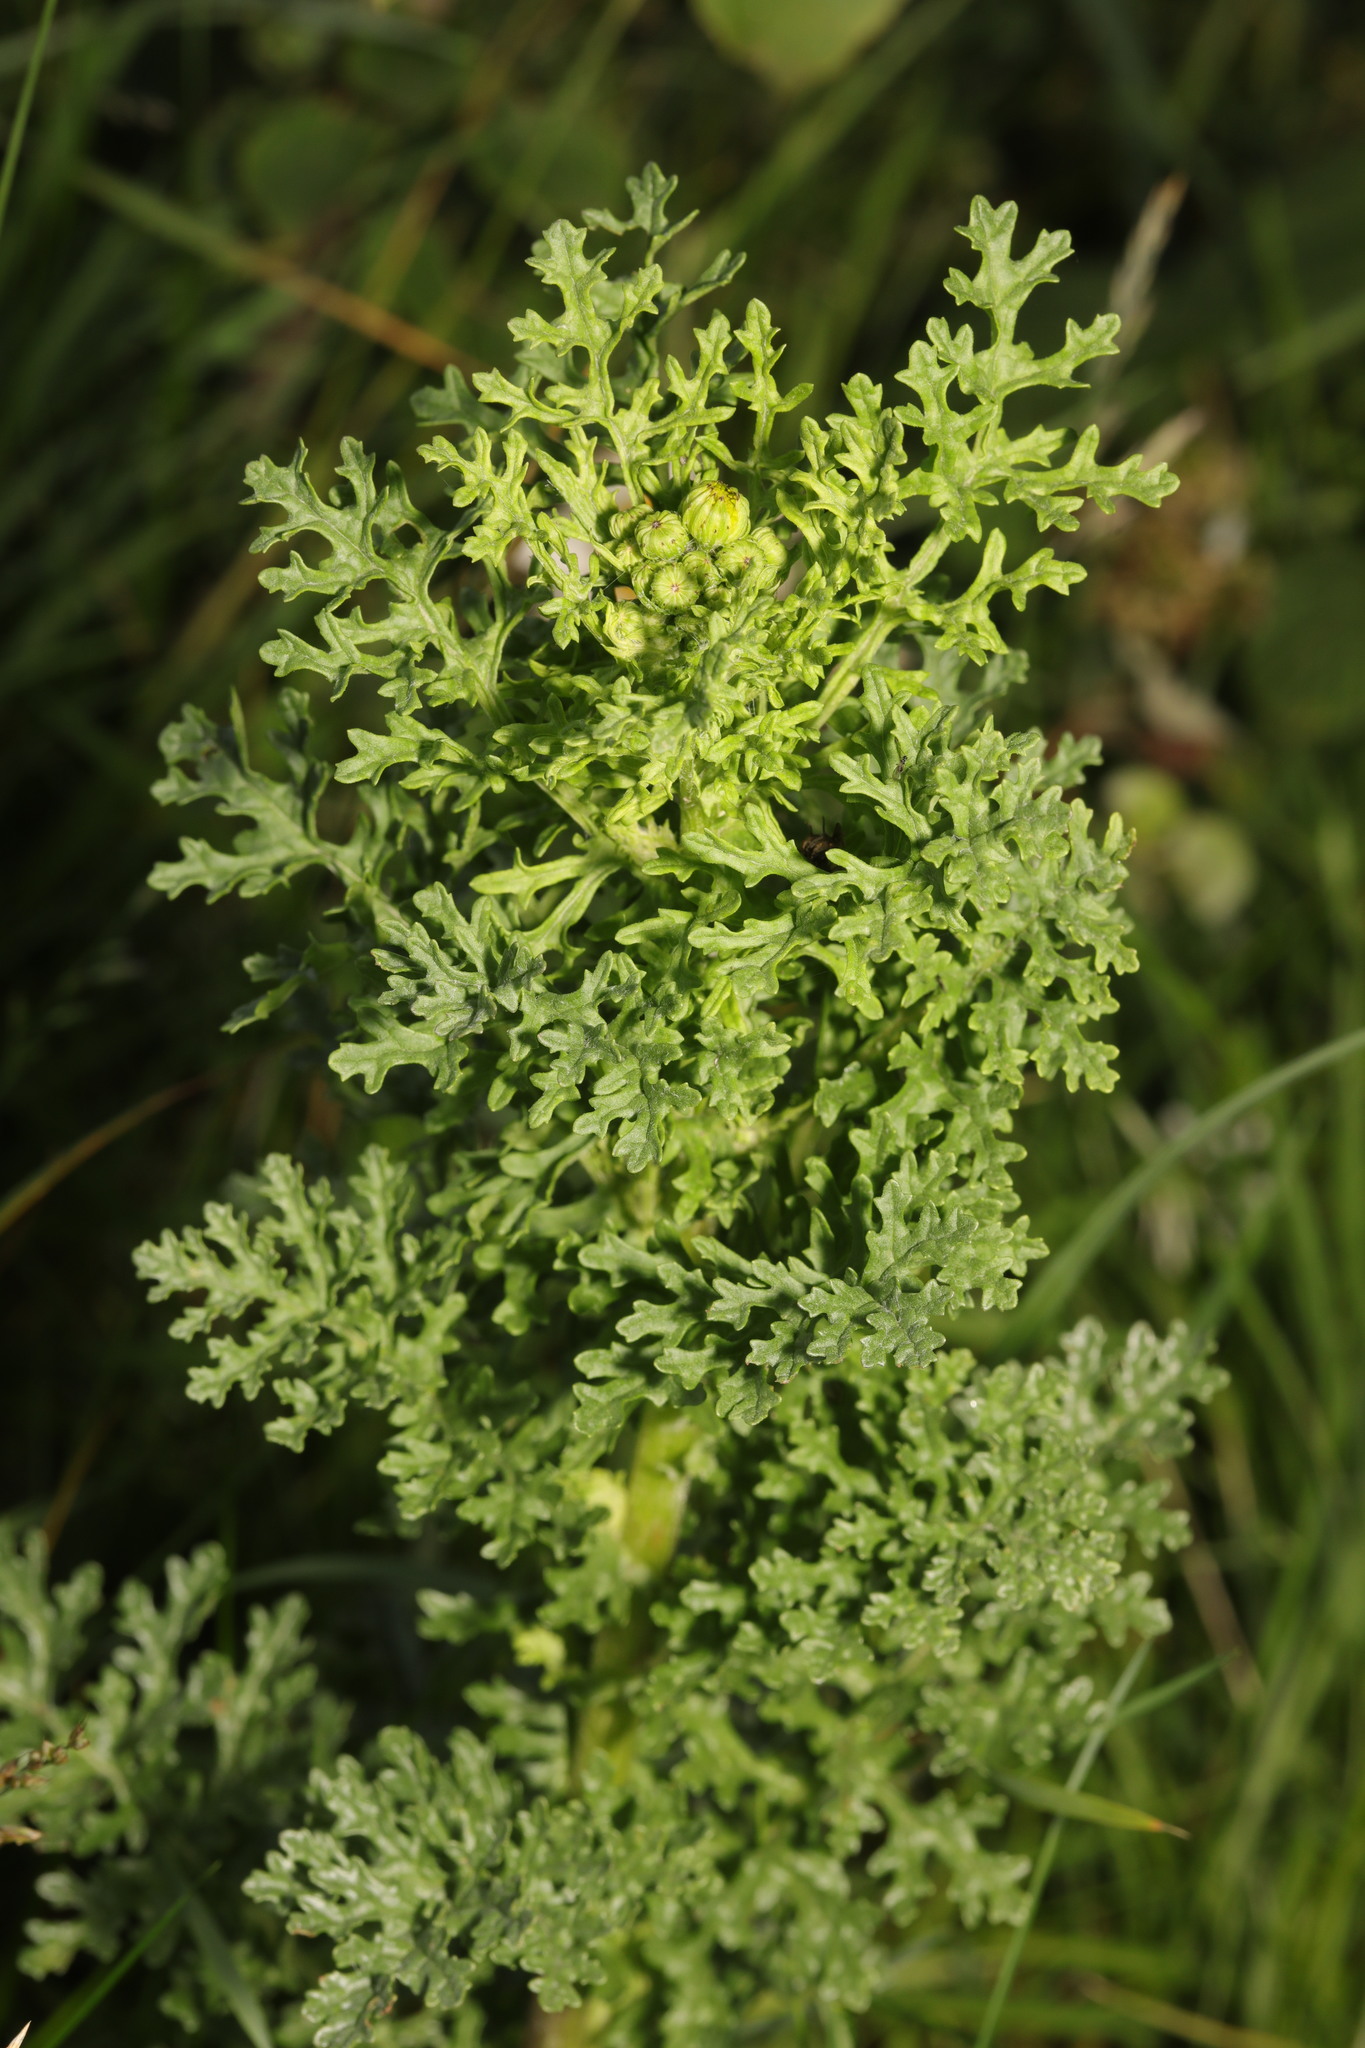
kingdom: Plantae
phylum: Tracheophyta
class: Magnoliopsida
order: Asterales
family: Asteraceae
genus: Jacobaea
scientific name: Jacobaea vulgaris
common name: Stinking willie
